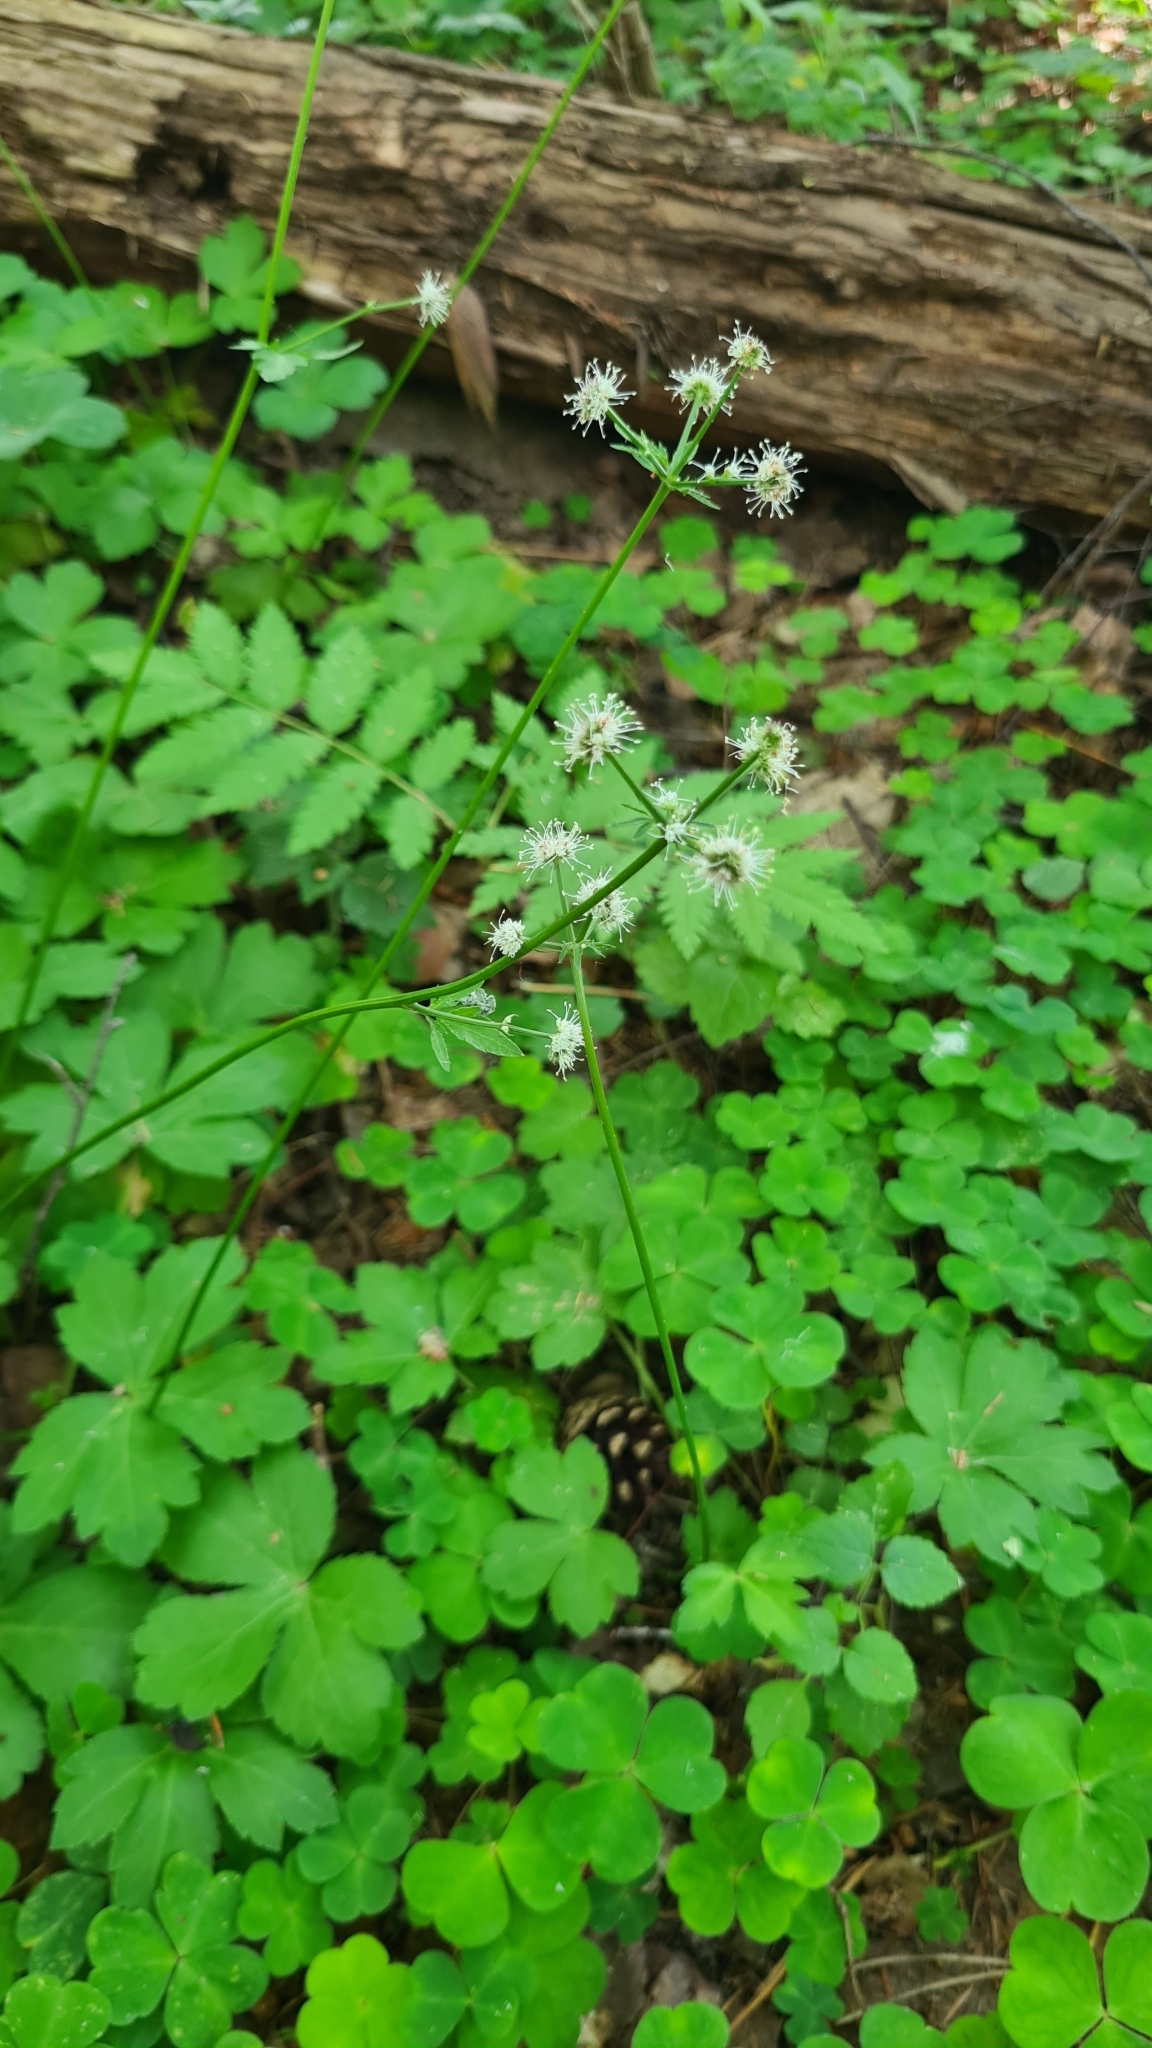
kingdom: Plantae
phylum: Tracheophyta
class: Magnoliopsida
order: Apiales
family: Apiaceae
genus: Sanicula
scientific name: Sanicula europaea
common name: Sanicle
